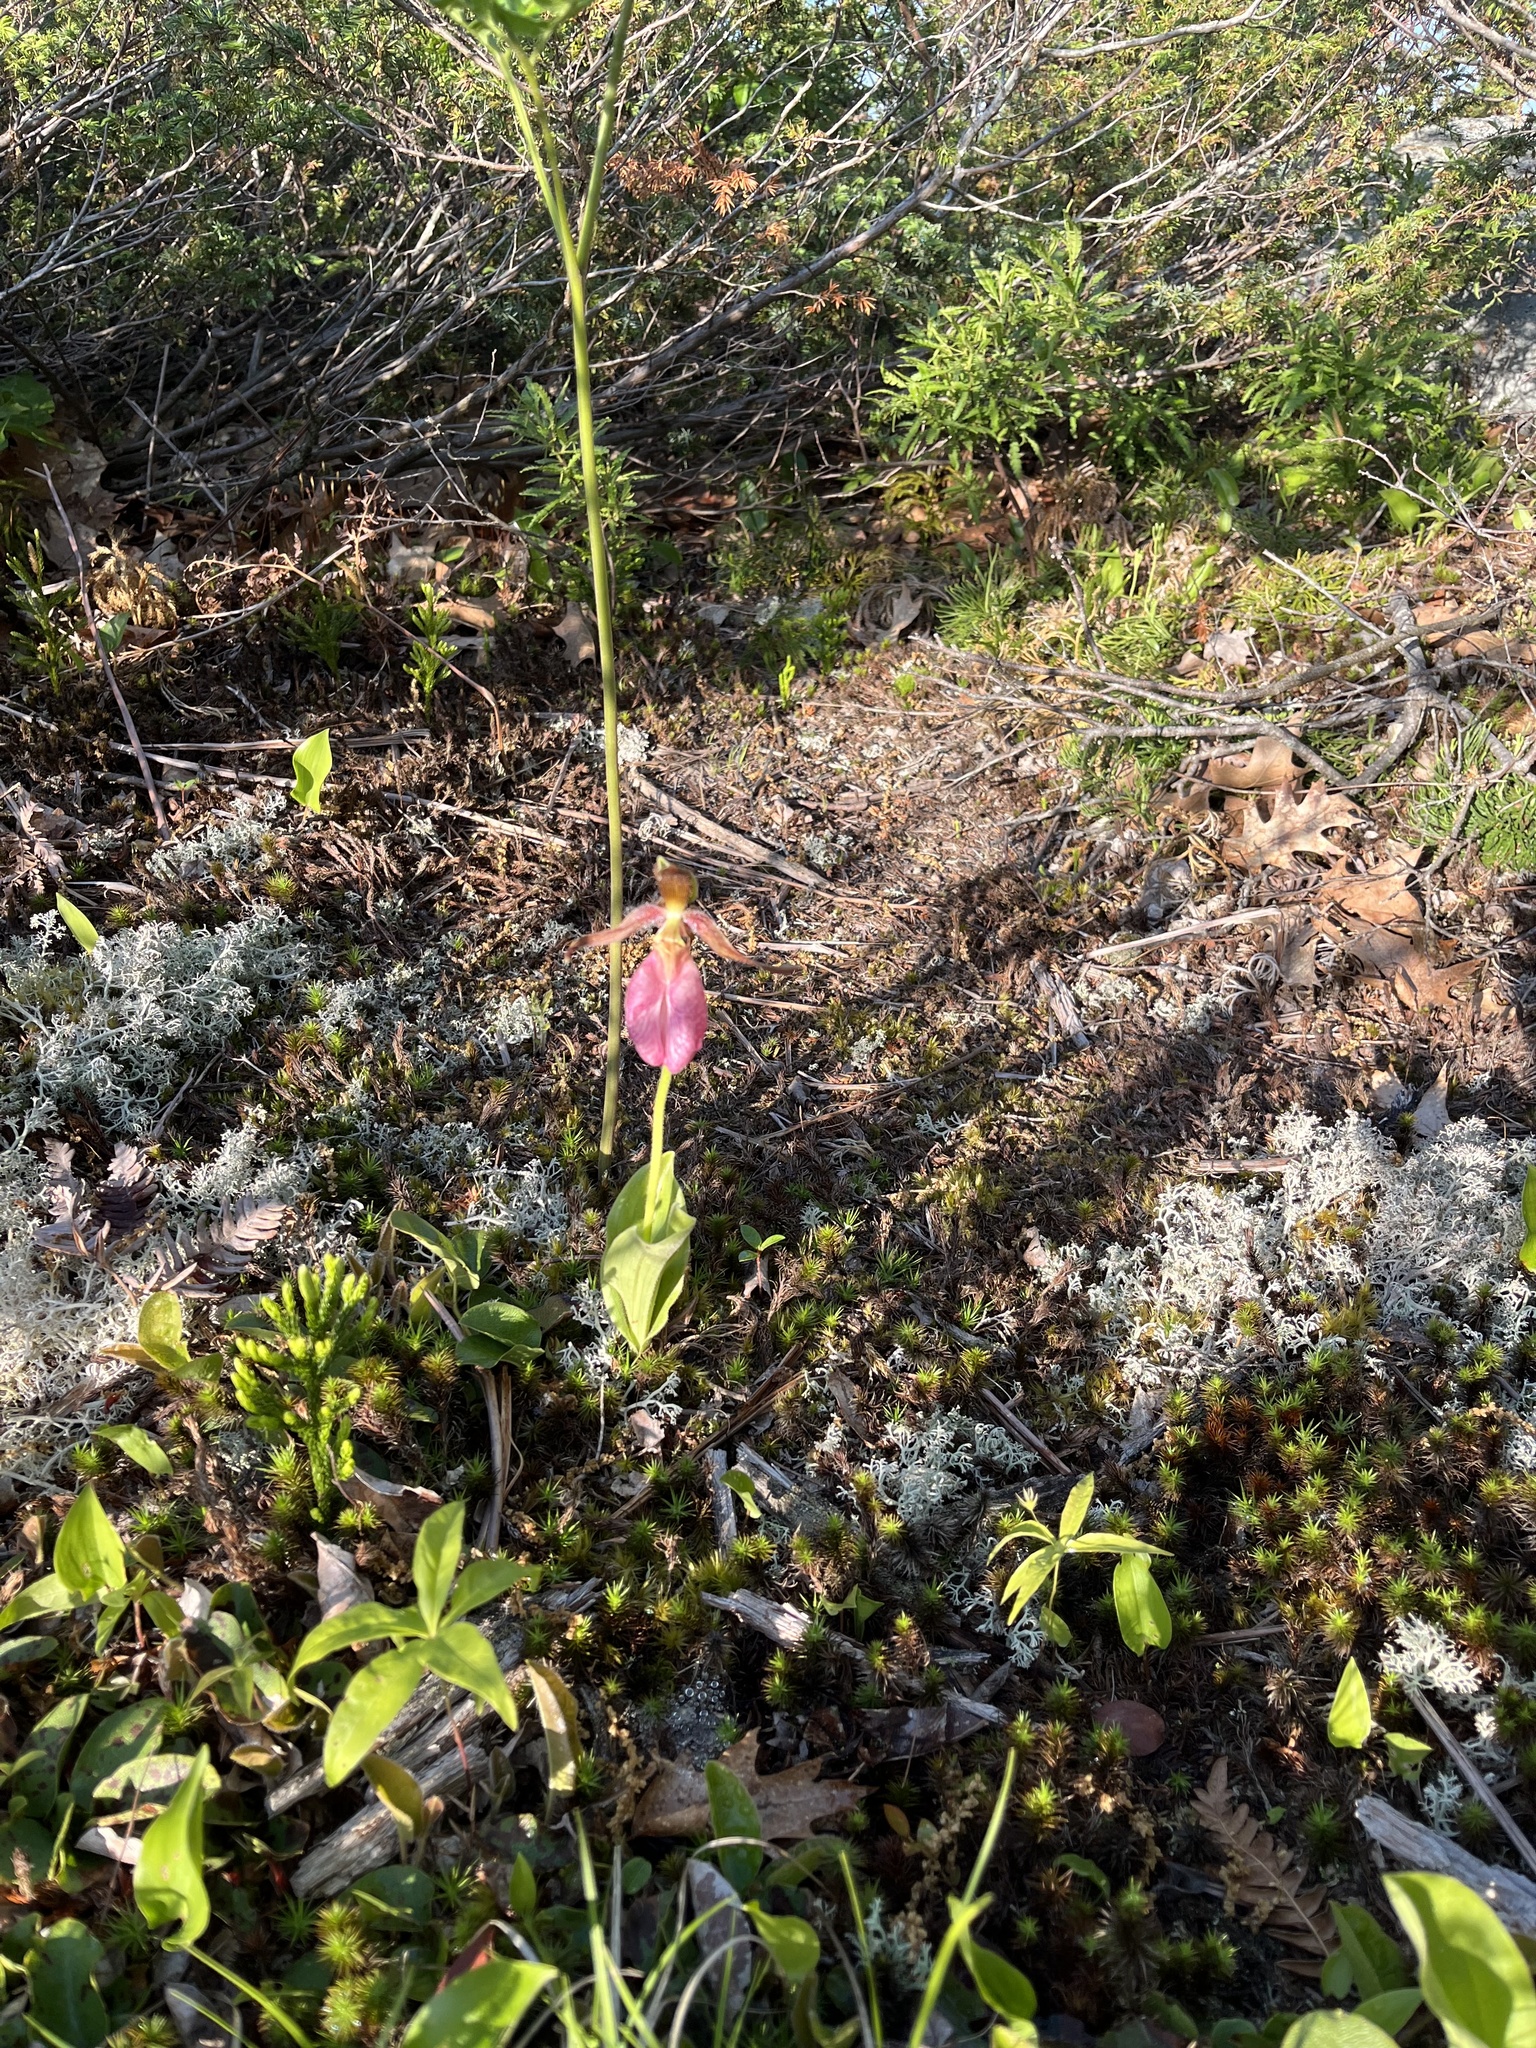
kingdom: Plantae
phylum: Tracheophyta
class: Liliopsida
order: Asparagales
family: Orchidaceae
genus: Cypripedium
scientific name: Cypripedium acaule
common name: Pink lady's-slipper
